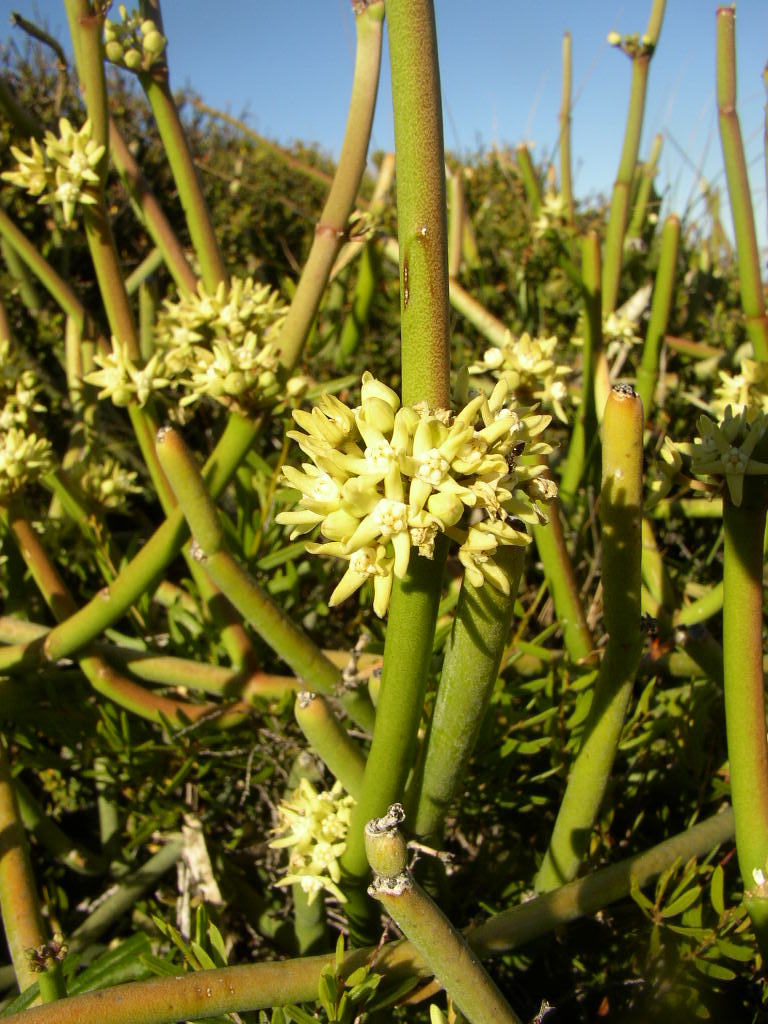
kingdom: Plantae
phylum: Tracheophyta
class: Magnoliopsida
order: Gentianales
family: Apocynaceae
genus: Cynanchum
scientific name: Cynanchum viminale
